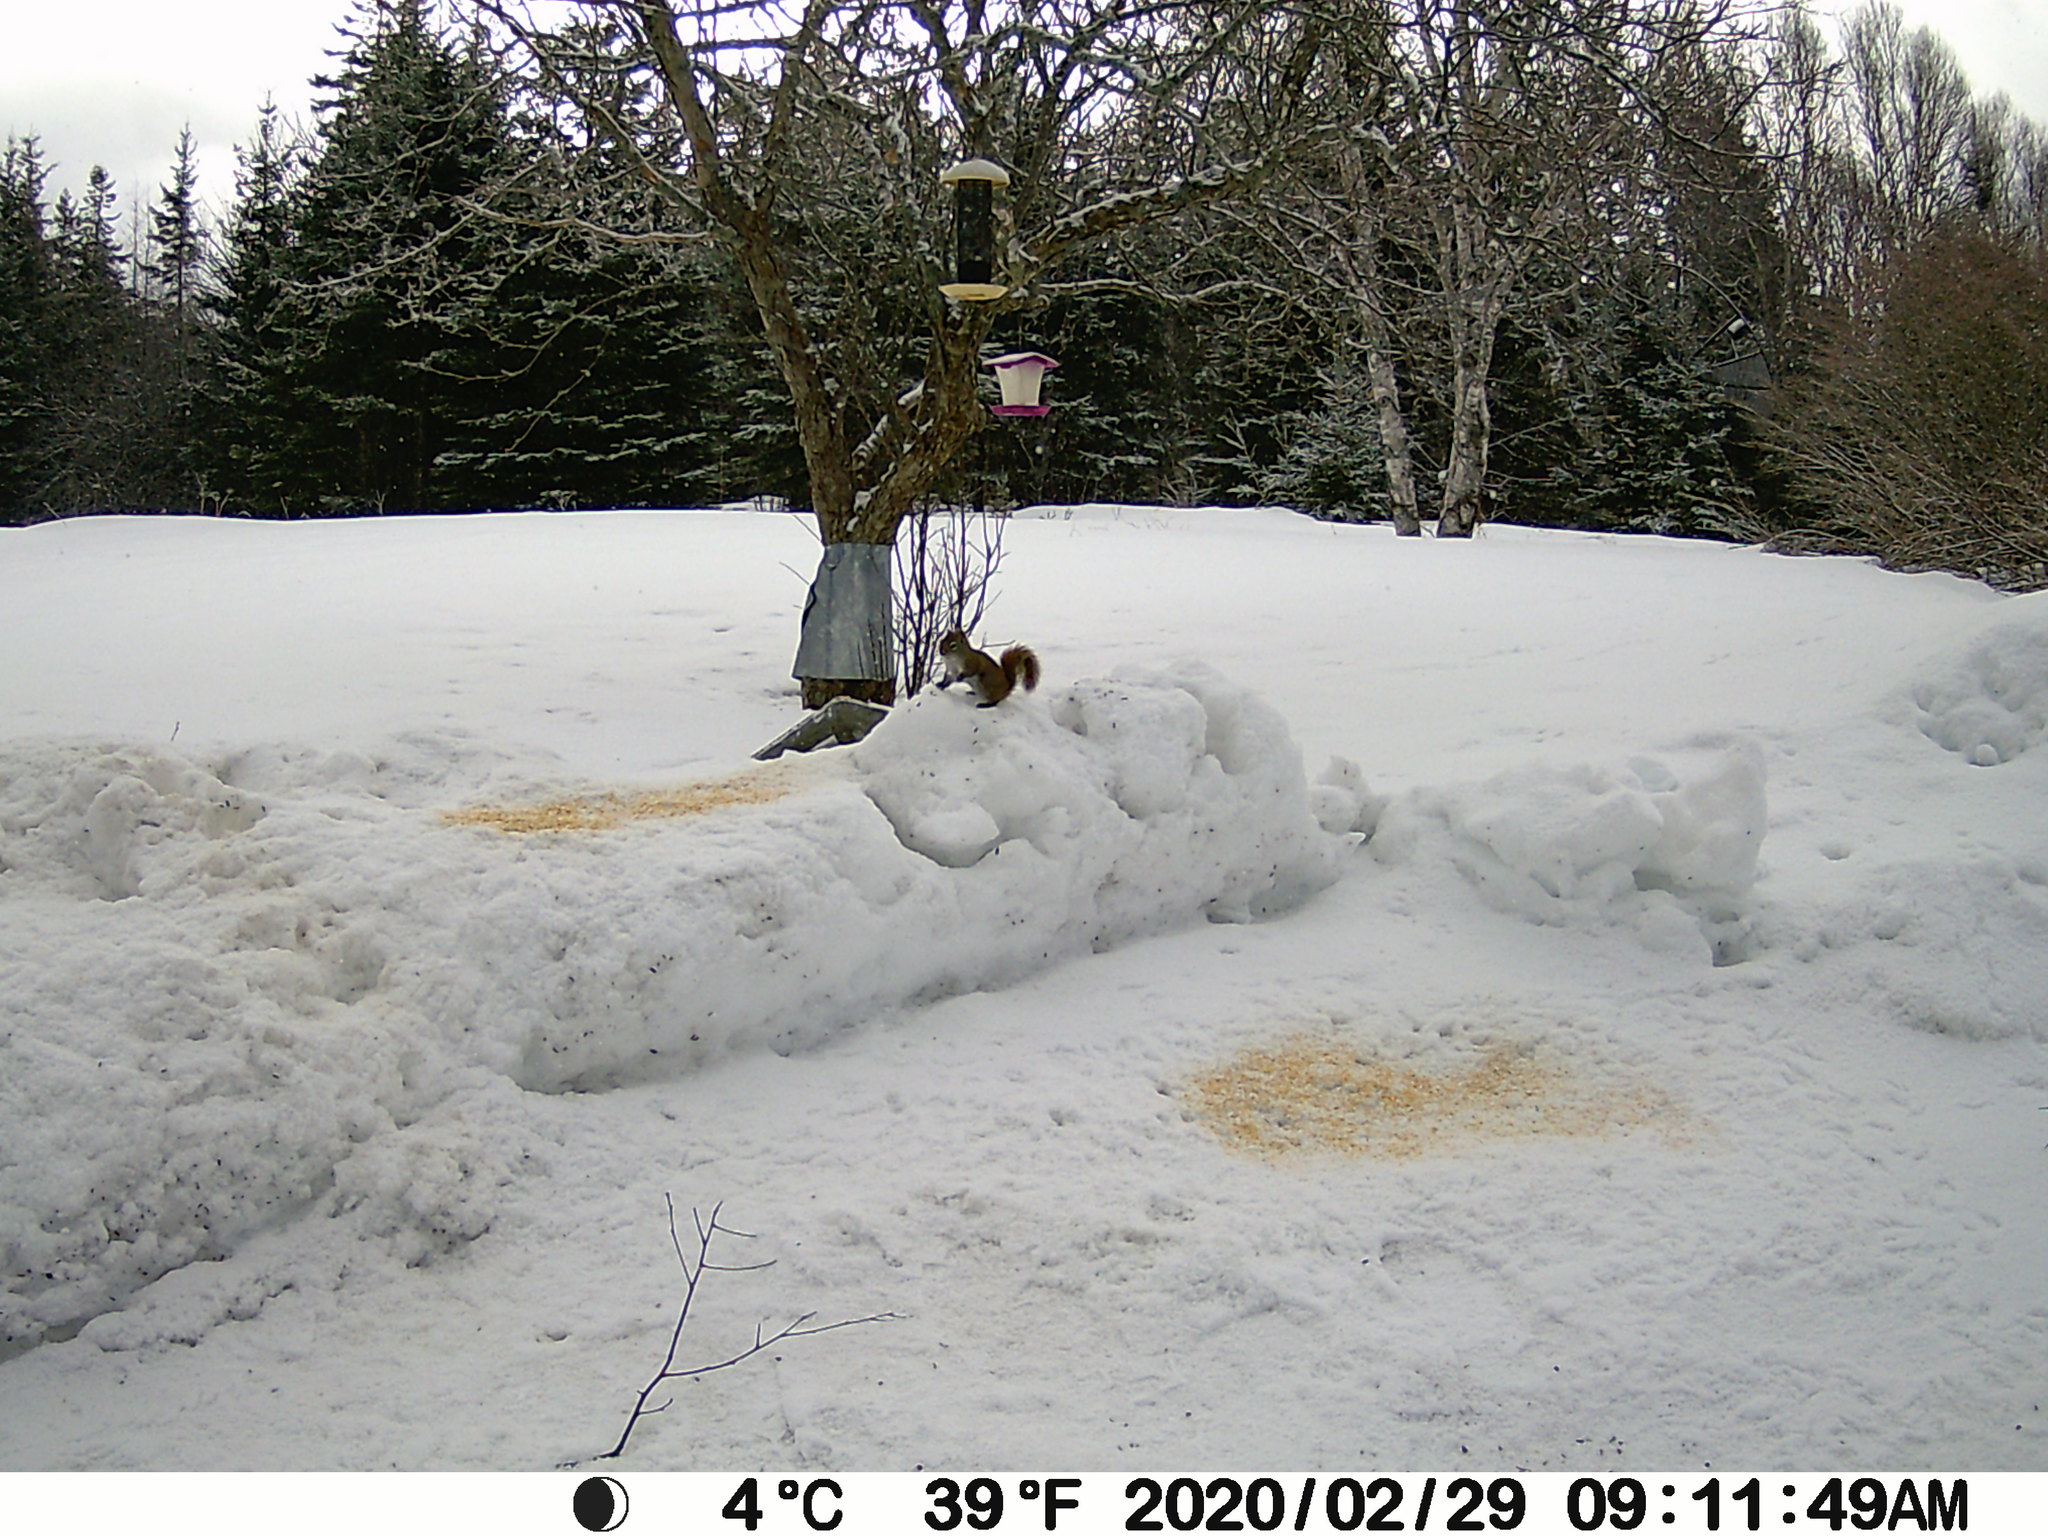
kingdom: Animalia
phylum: Chordata
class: Mammalia
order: Rodentia
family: Sciuridae
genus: Tamiasciurus
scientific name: Tamiasciurus hudsonicus
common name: Red squirrel
